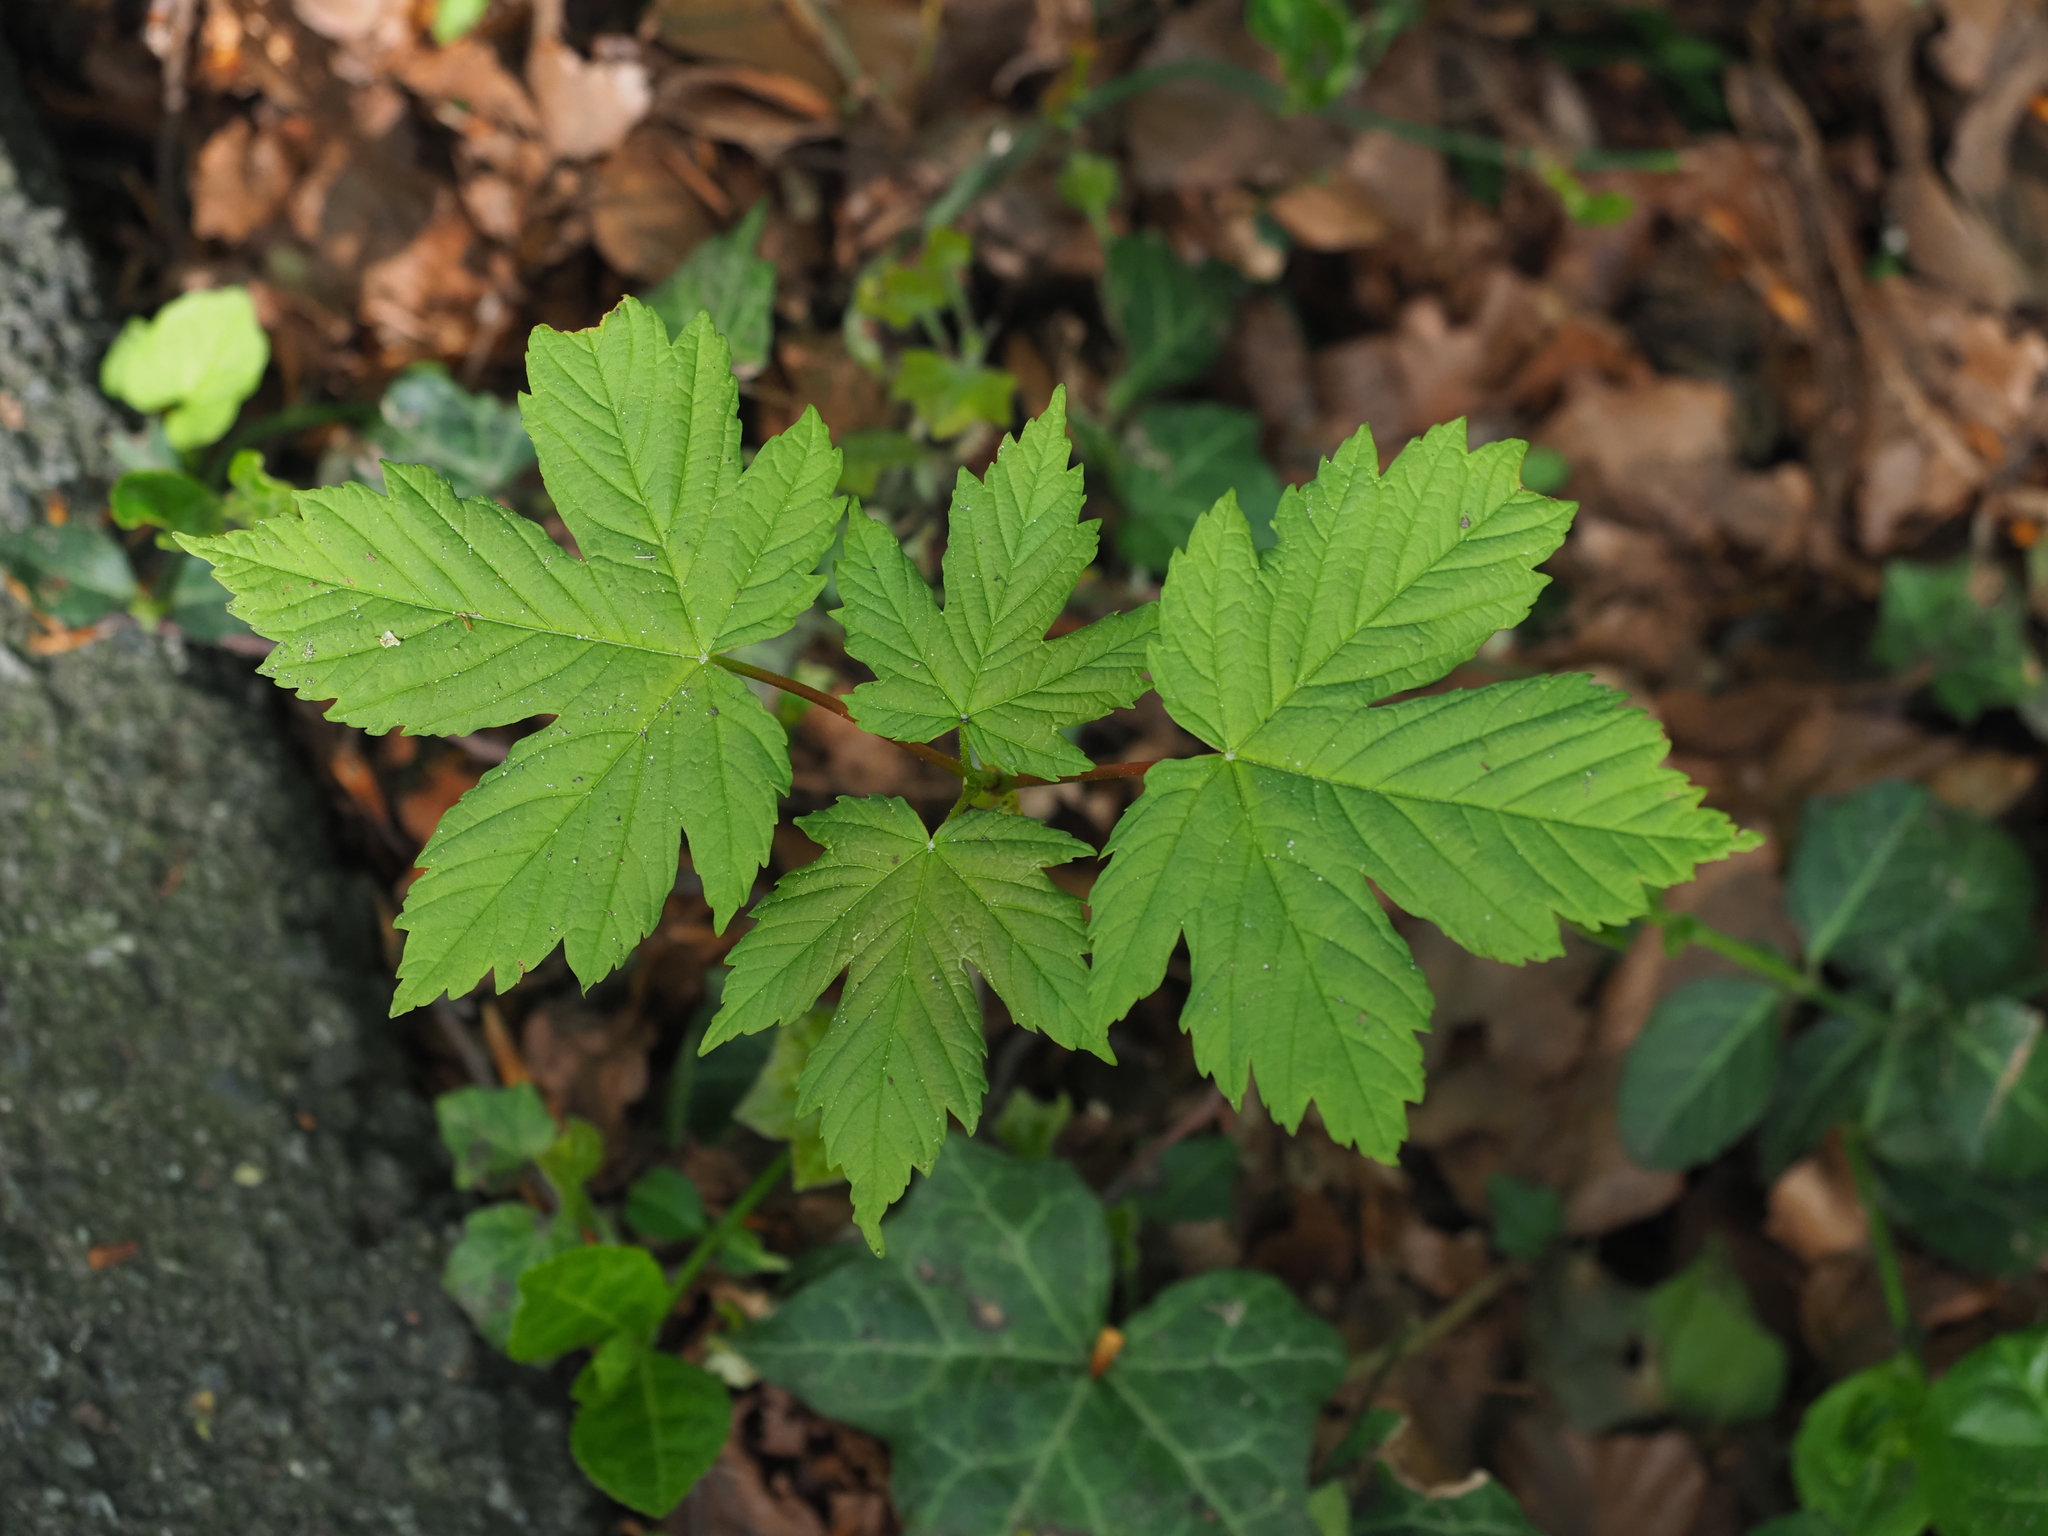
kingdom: Plantae
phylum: Tracheophyta
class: Magnoliopsida
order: Sapindales
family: Sapindaceae
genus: Acer
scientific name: Acer pseudoplatanus
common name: Sycamore
